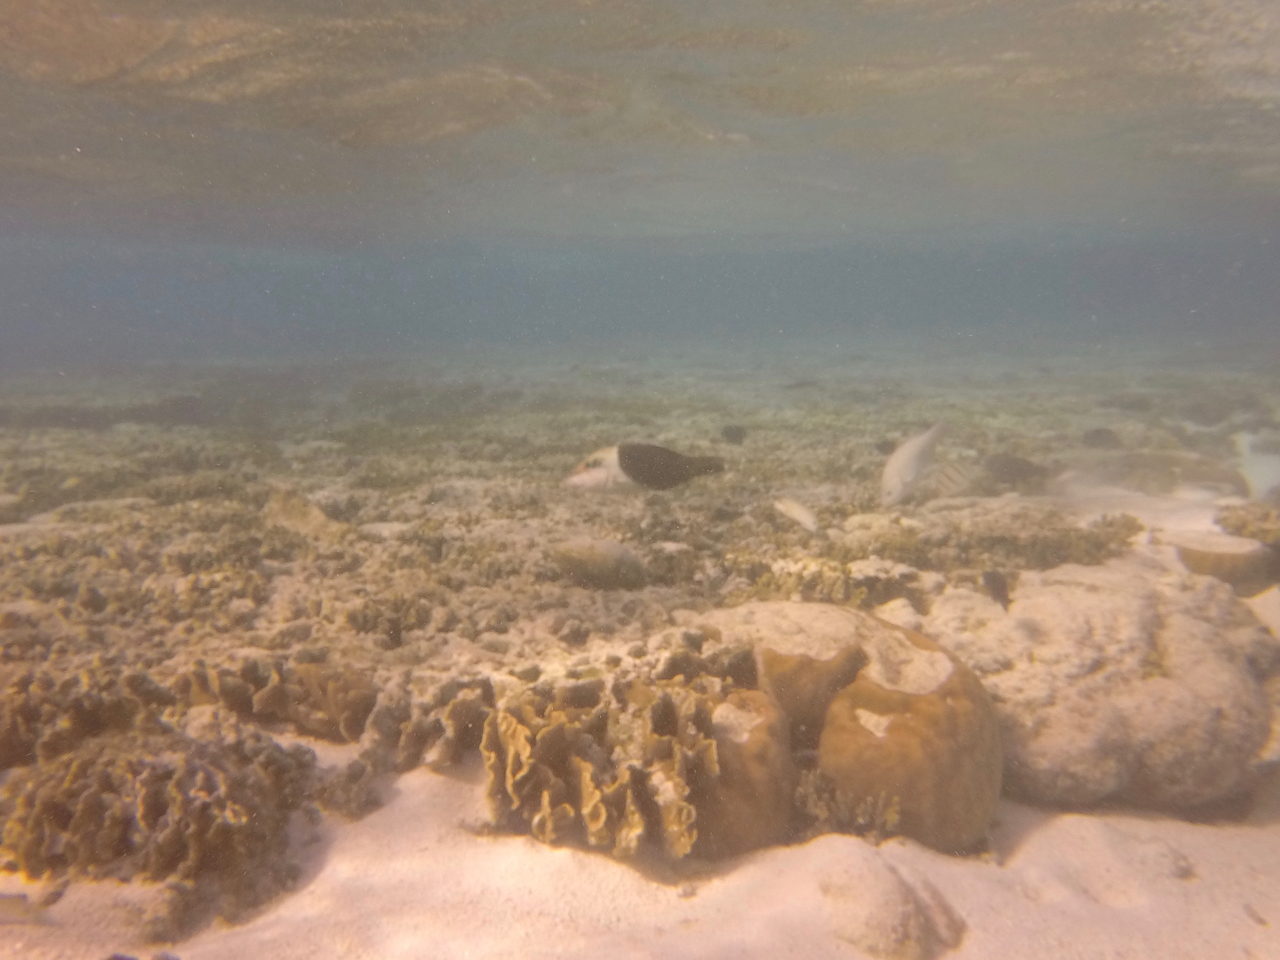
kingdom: Animalia
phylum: Chordata
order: Perciformes
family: Labridae
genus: Hemigymnus
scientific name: Hemigymnus melapterus
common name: Blackeye thicklip
